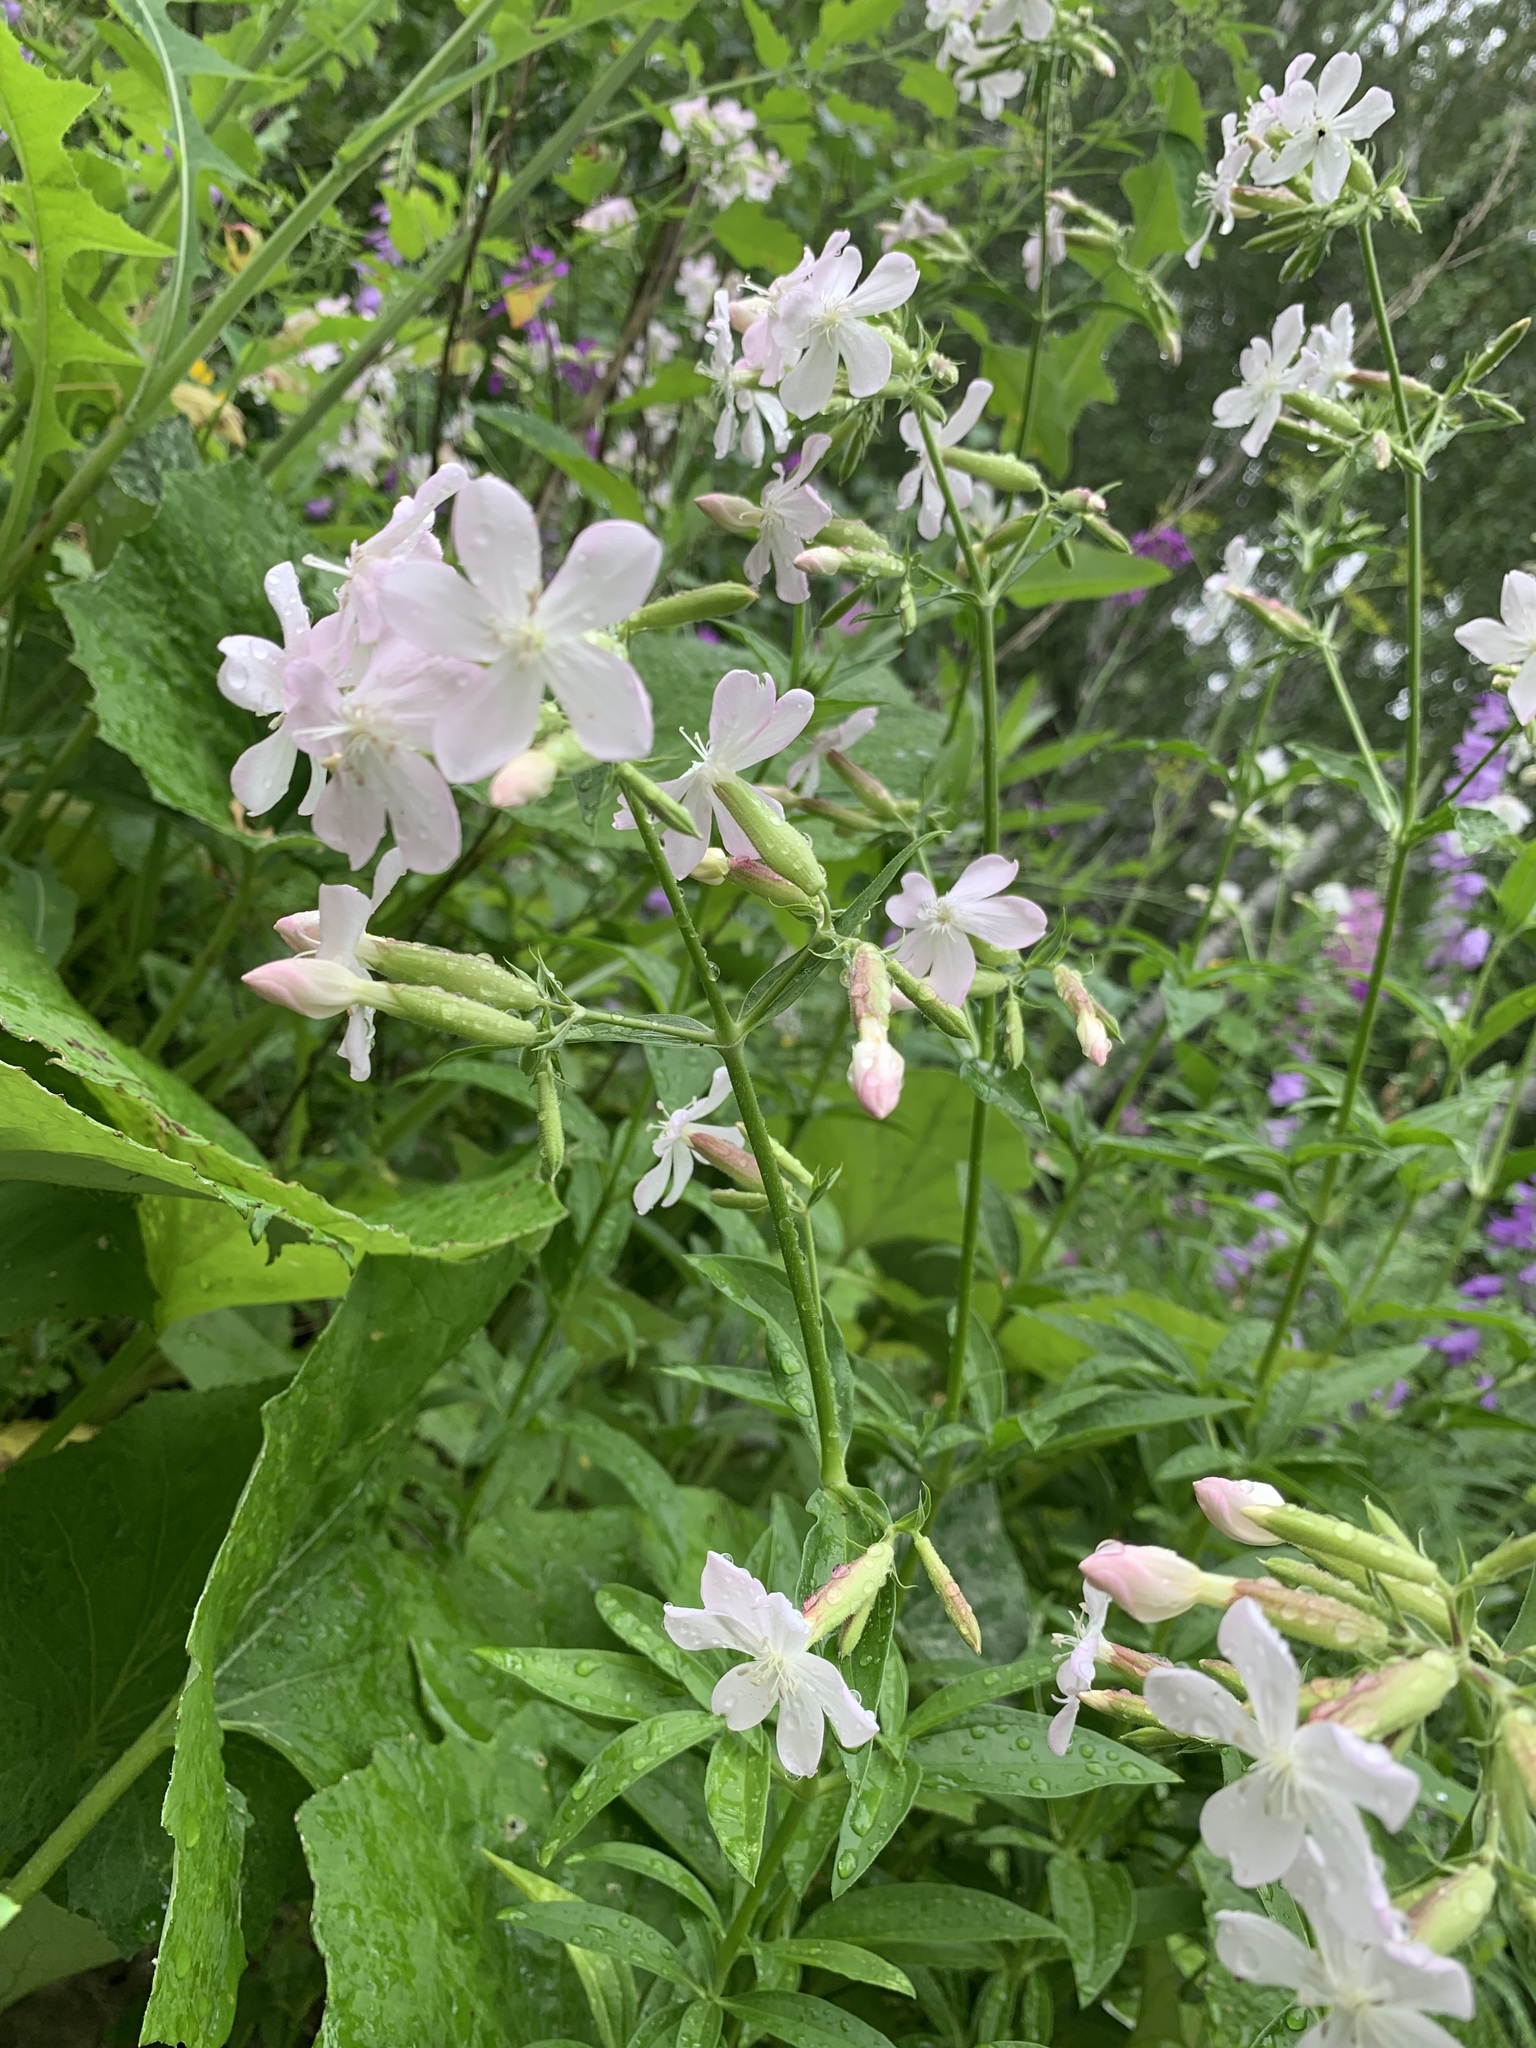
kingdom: Plantae
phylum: Tracheophyta
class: Magnoliopsida
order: Caryophyllales
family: Caryophyllaceae
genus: Saponaria
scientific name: Saponaria officinalis
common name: Soapwort
